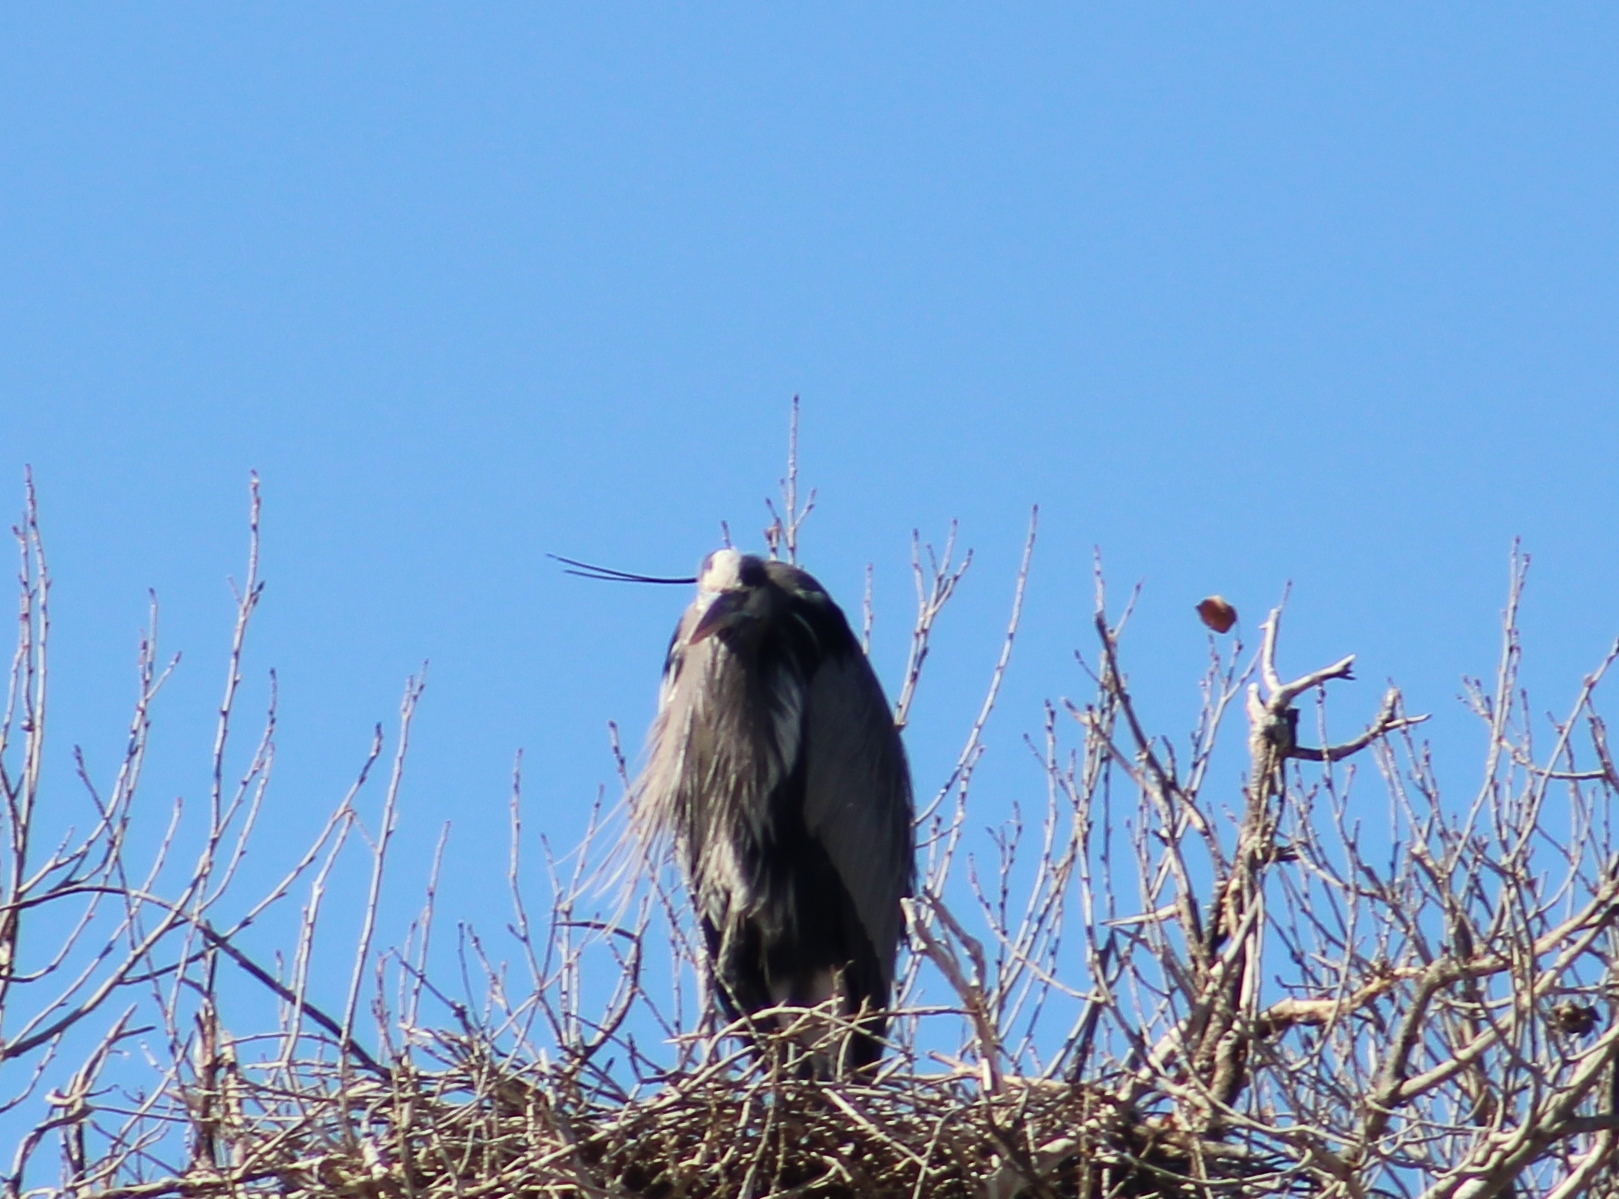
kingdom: Animalia
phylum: Chordata
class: Aves
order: Pelecaniformes
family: Ardeidae
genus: Ardea
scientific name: Ardea herodias
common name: Great blue heron
